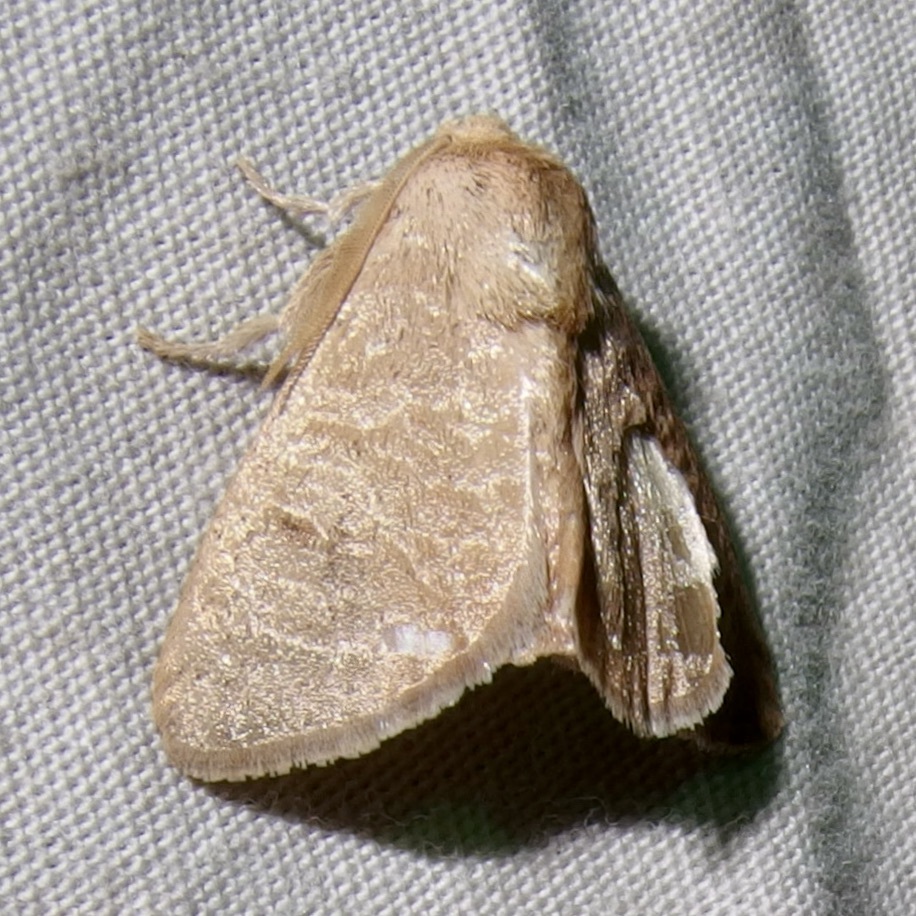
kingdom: Animalia
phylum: Arthropoda
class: Insecta
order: Lepidoptera
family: Limacodidae
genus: Isa
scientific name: Isa schaefferana
